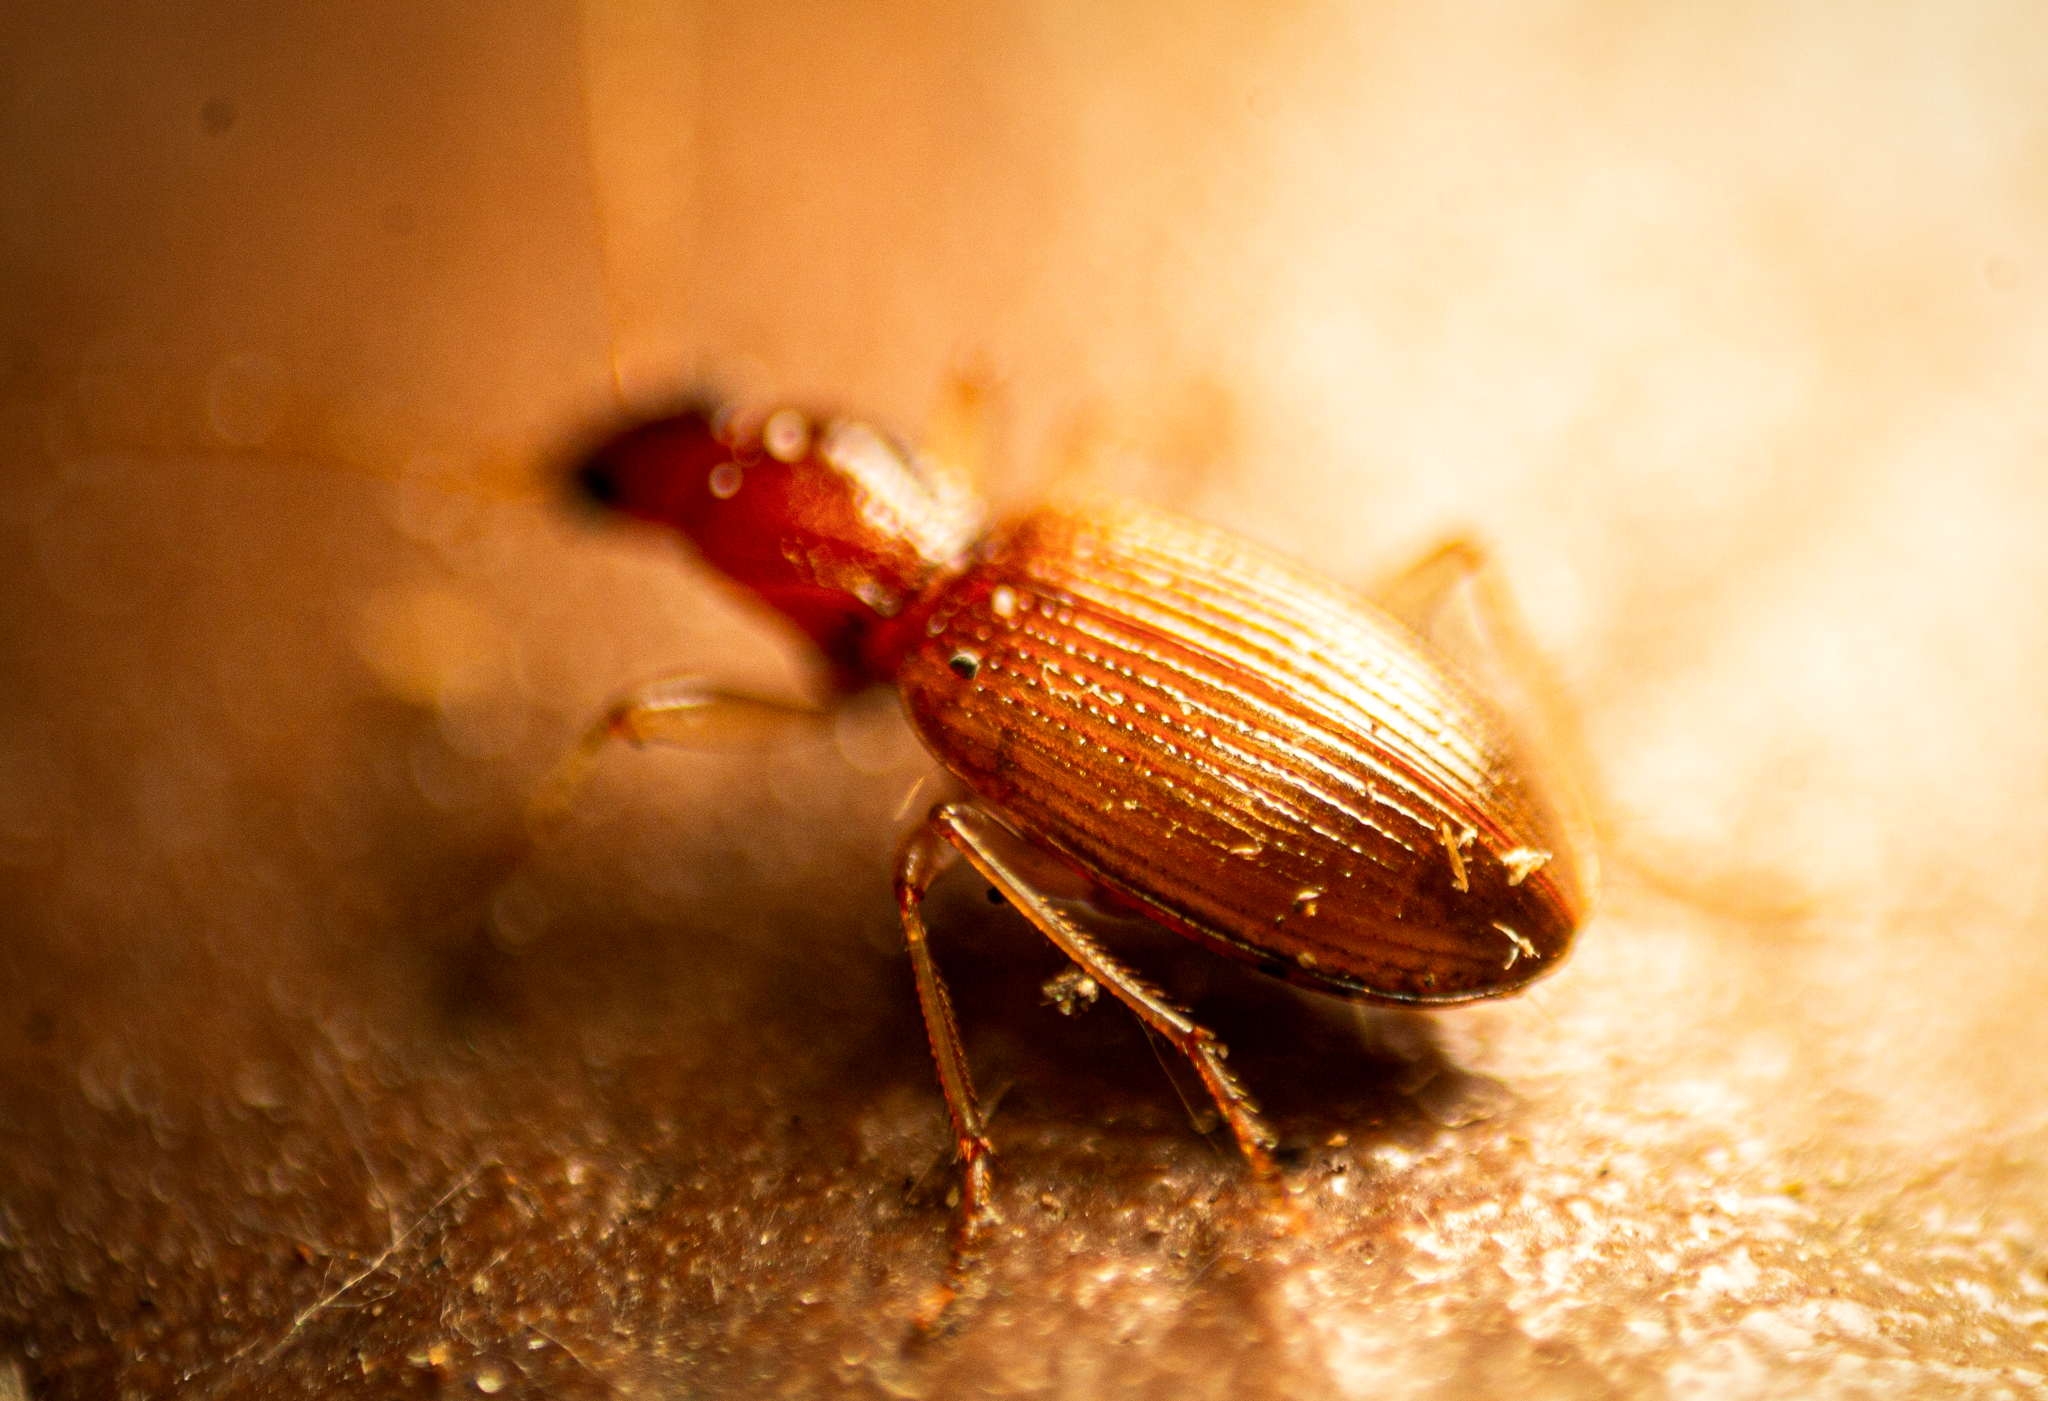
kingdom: Animalia
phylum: Arthropoda
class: Insecta
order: Coleoptera
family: Carabidae
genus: Oxypselaphus
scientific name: Oxypselaphus obscurus
